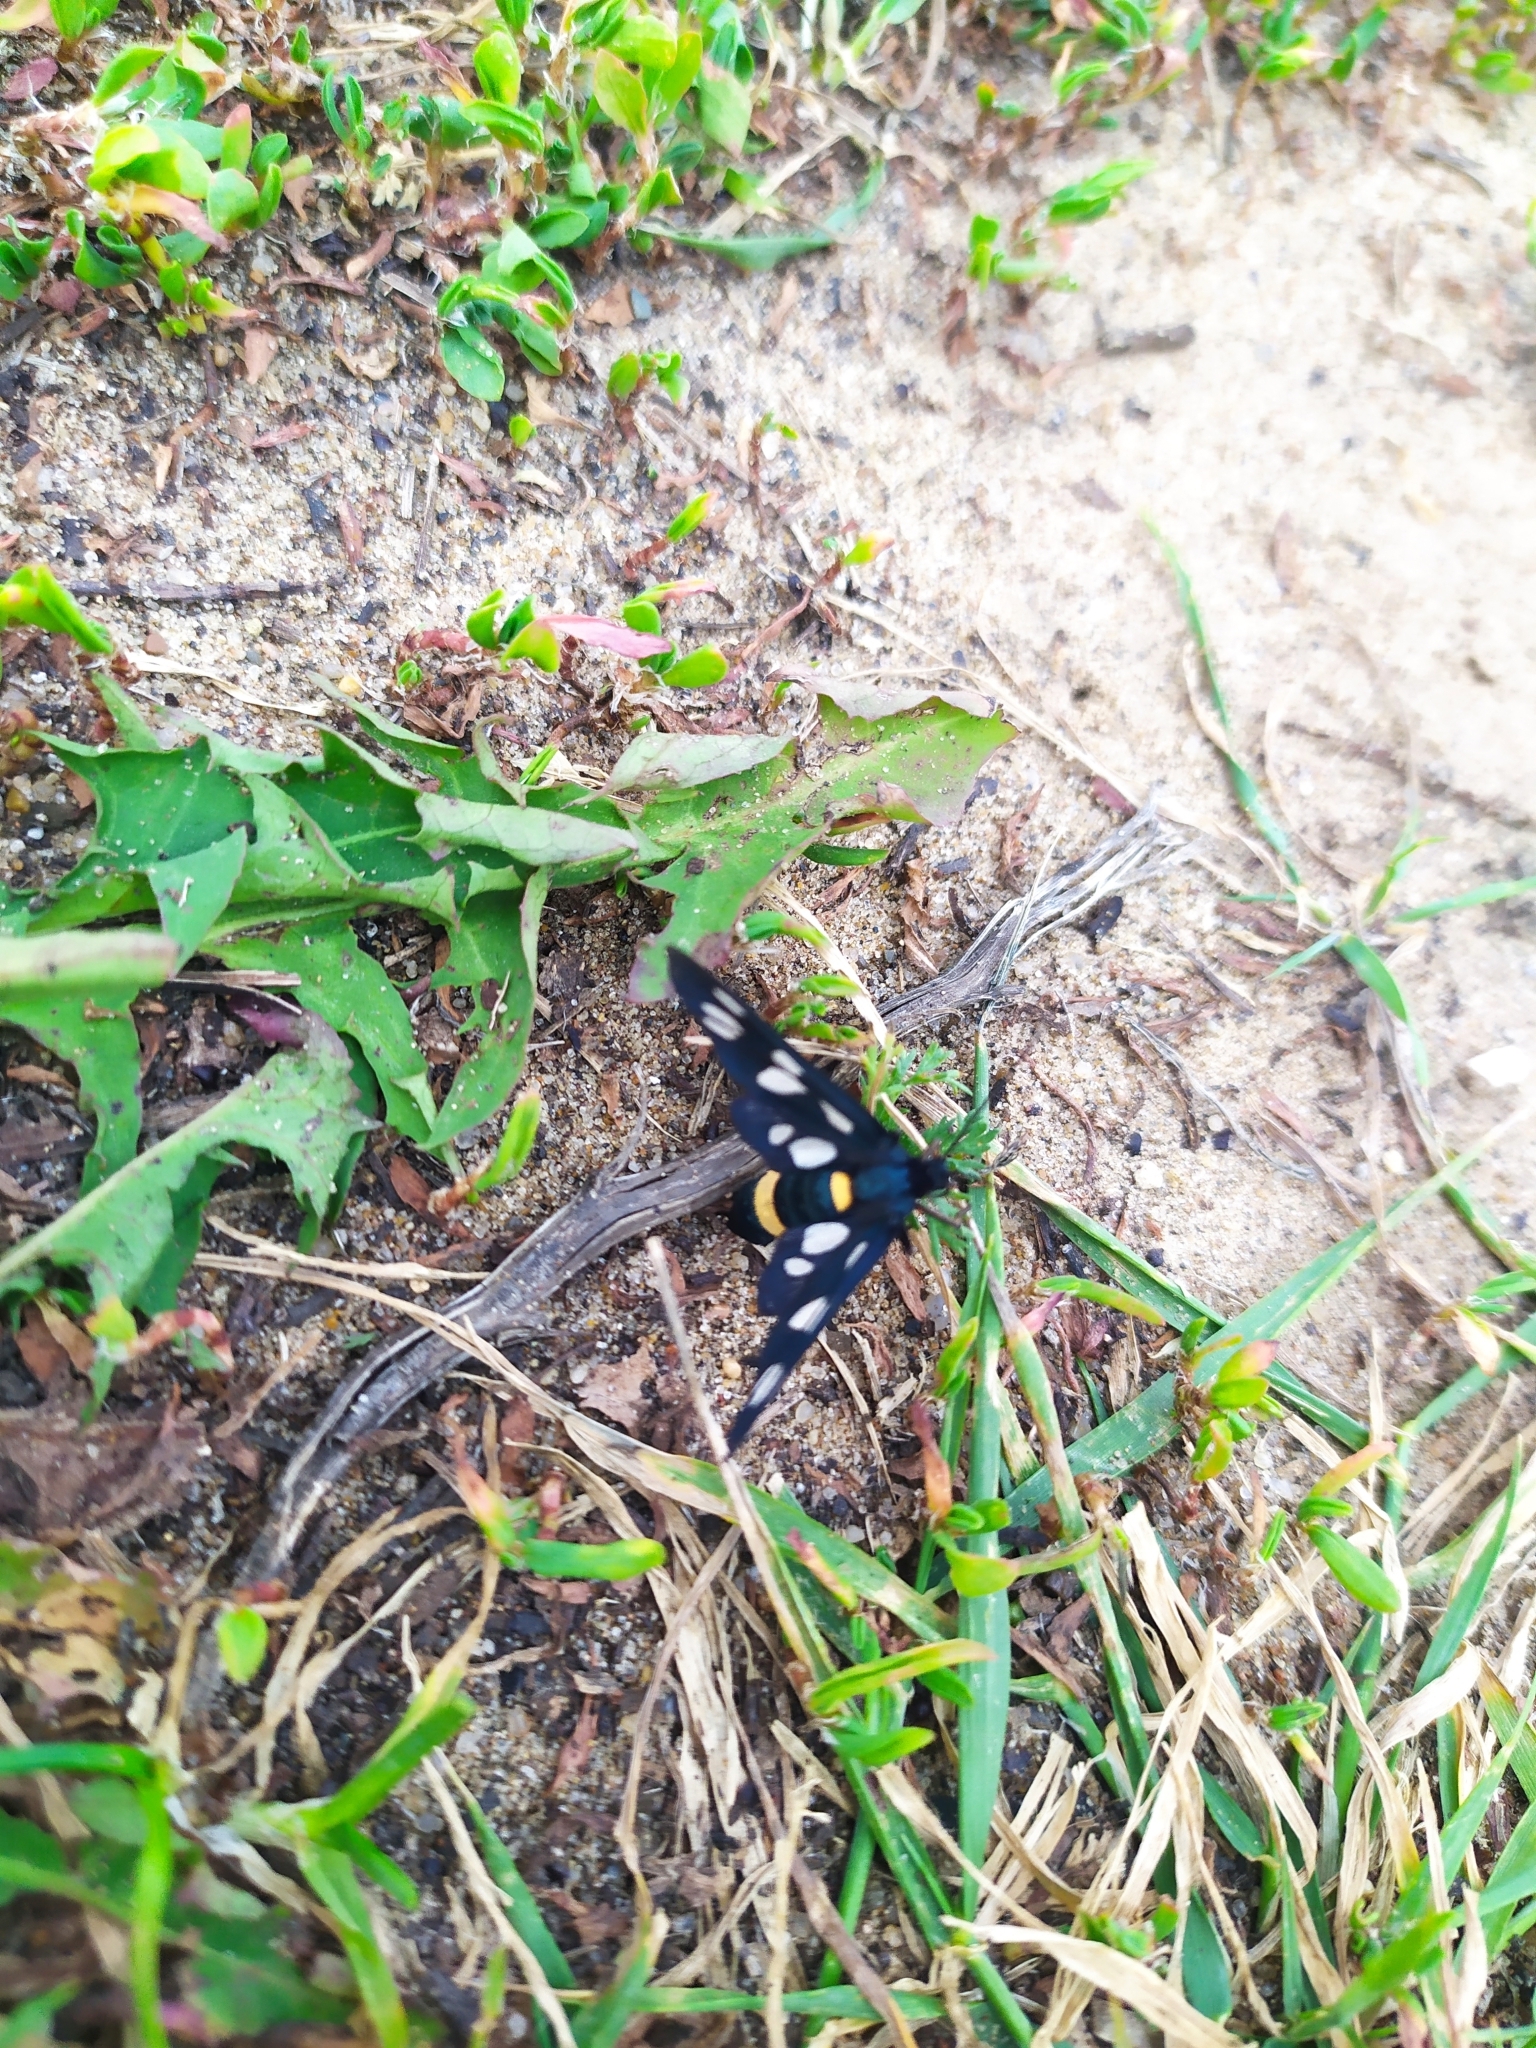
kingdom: Animalia
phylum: Arthropoda
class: Insecta
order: Lepidoptera
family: Erebidae
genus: Amata
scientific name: Amata nigricornis
